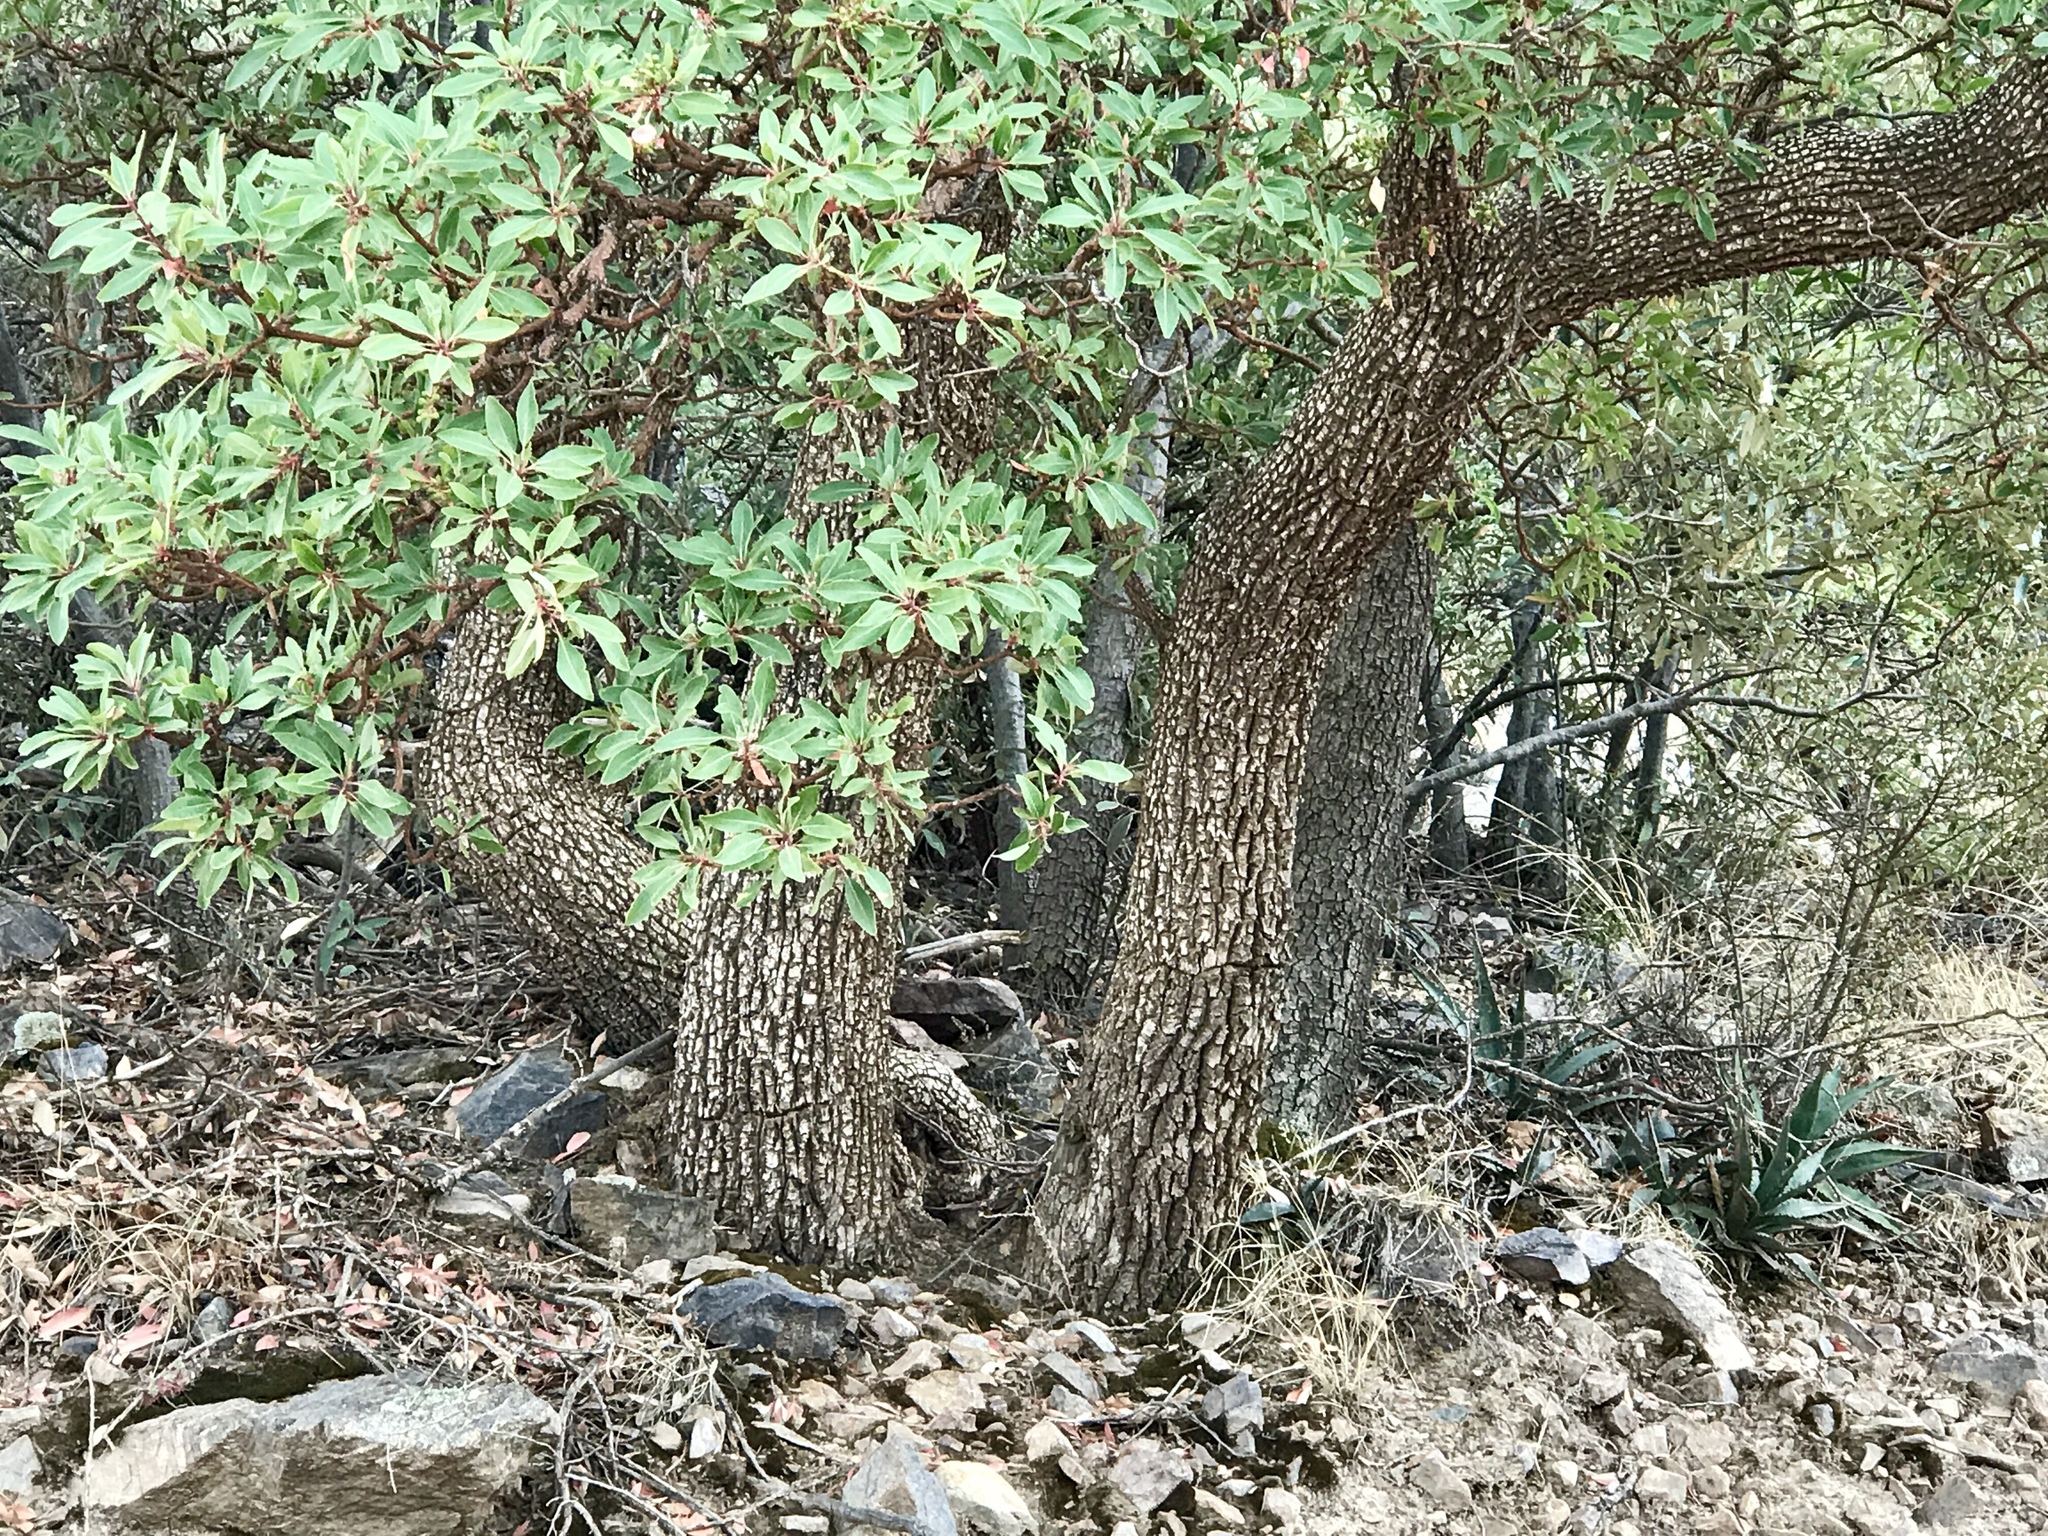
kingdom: Plantae
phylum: Tracheophyta
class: Magnoliopsida
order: Ericales
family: Ericaceae
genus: Arbutus
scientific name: Arbutus arizonica
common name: Arizona madrone
